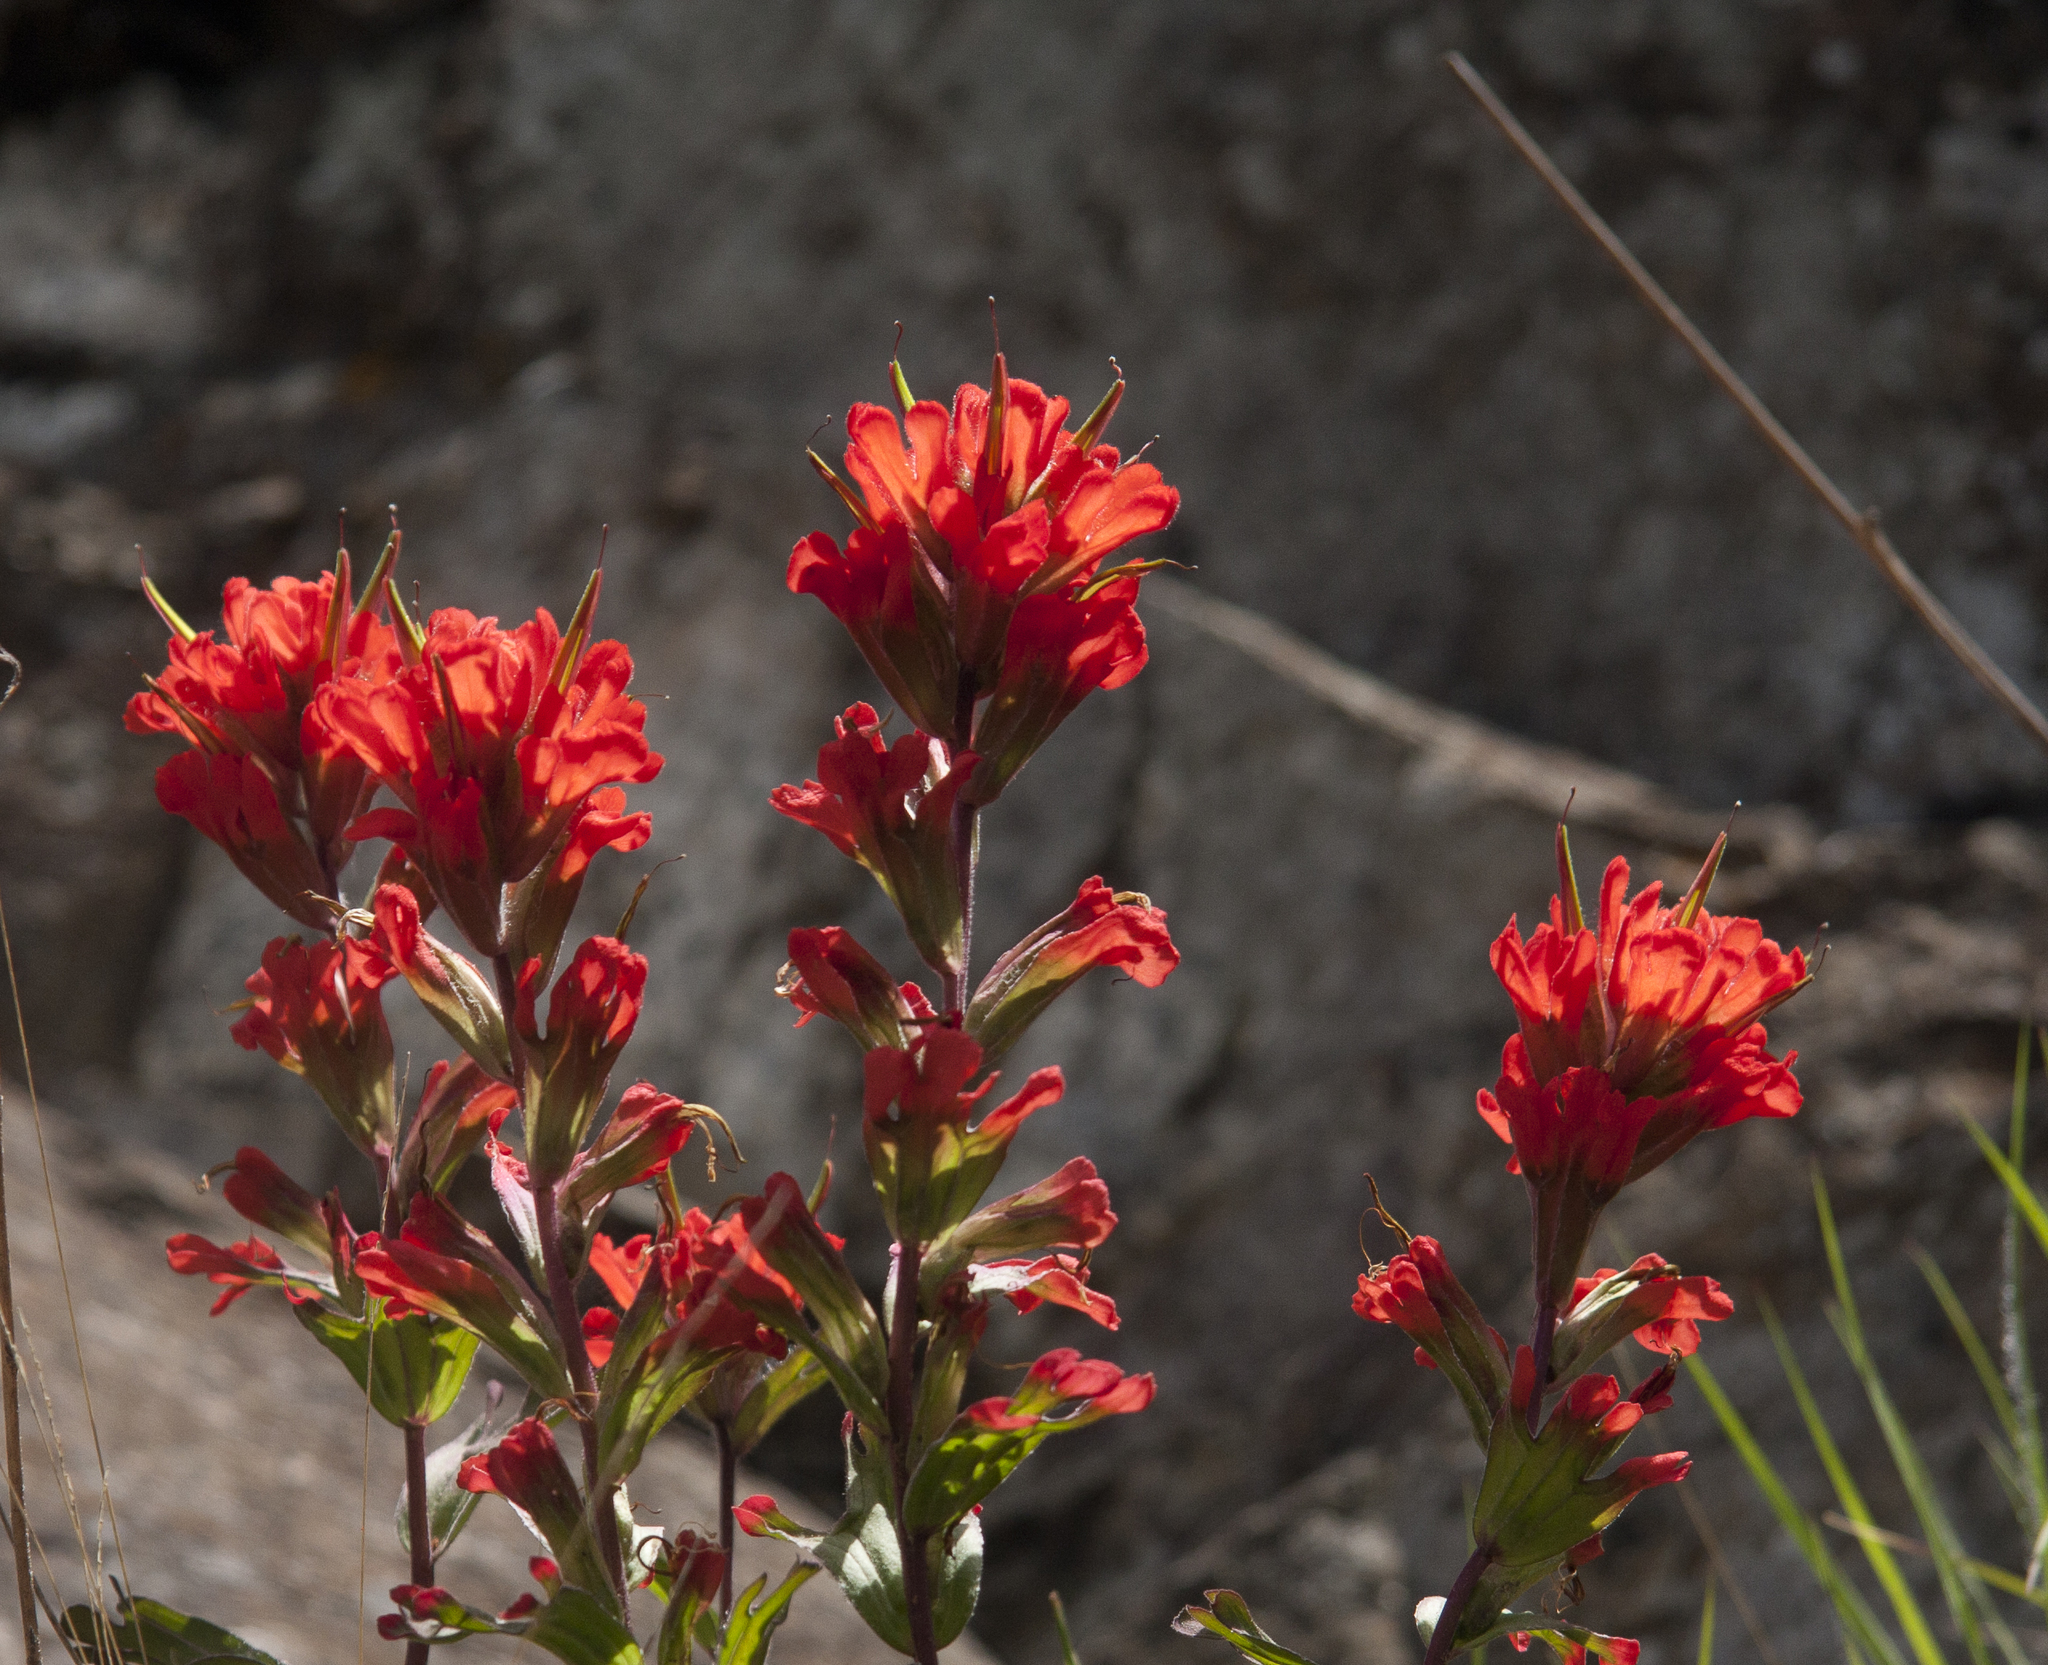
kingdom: Plantae
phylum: Tracheophyta
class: Magnoliopsida
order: Lamiales
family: Orobanchaceae
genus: Castilleja
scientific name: Castilleja hispida
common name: Bristly paintbrush
